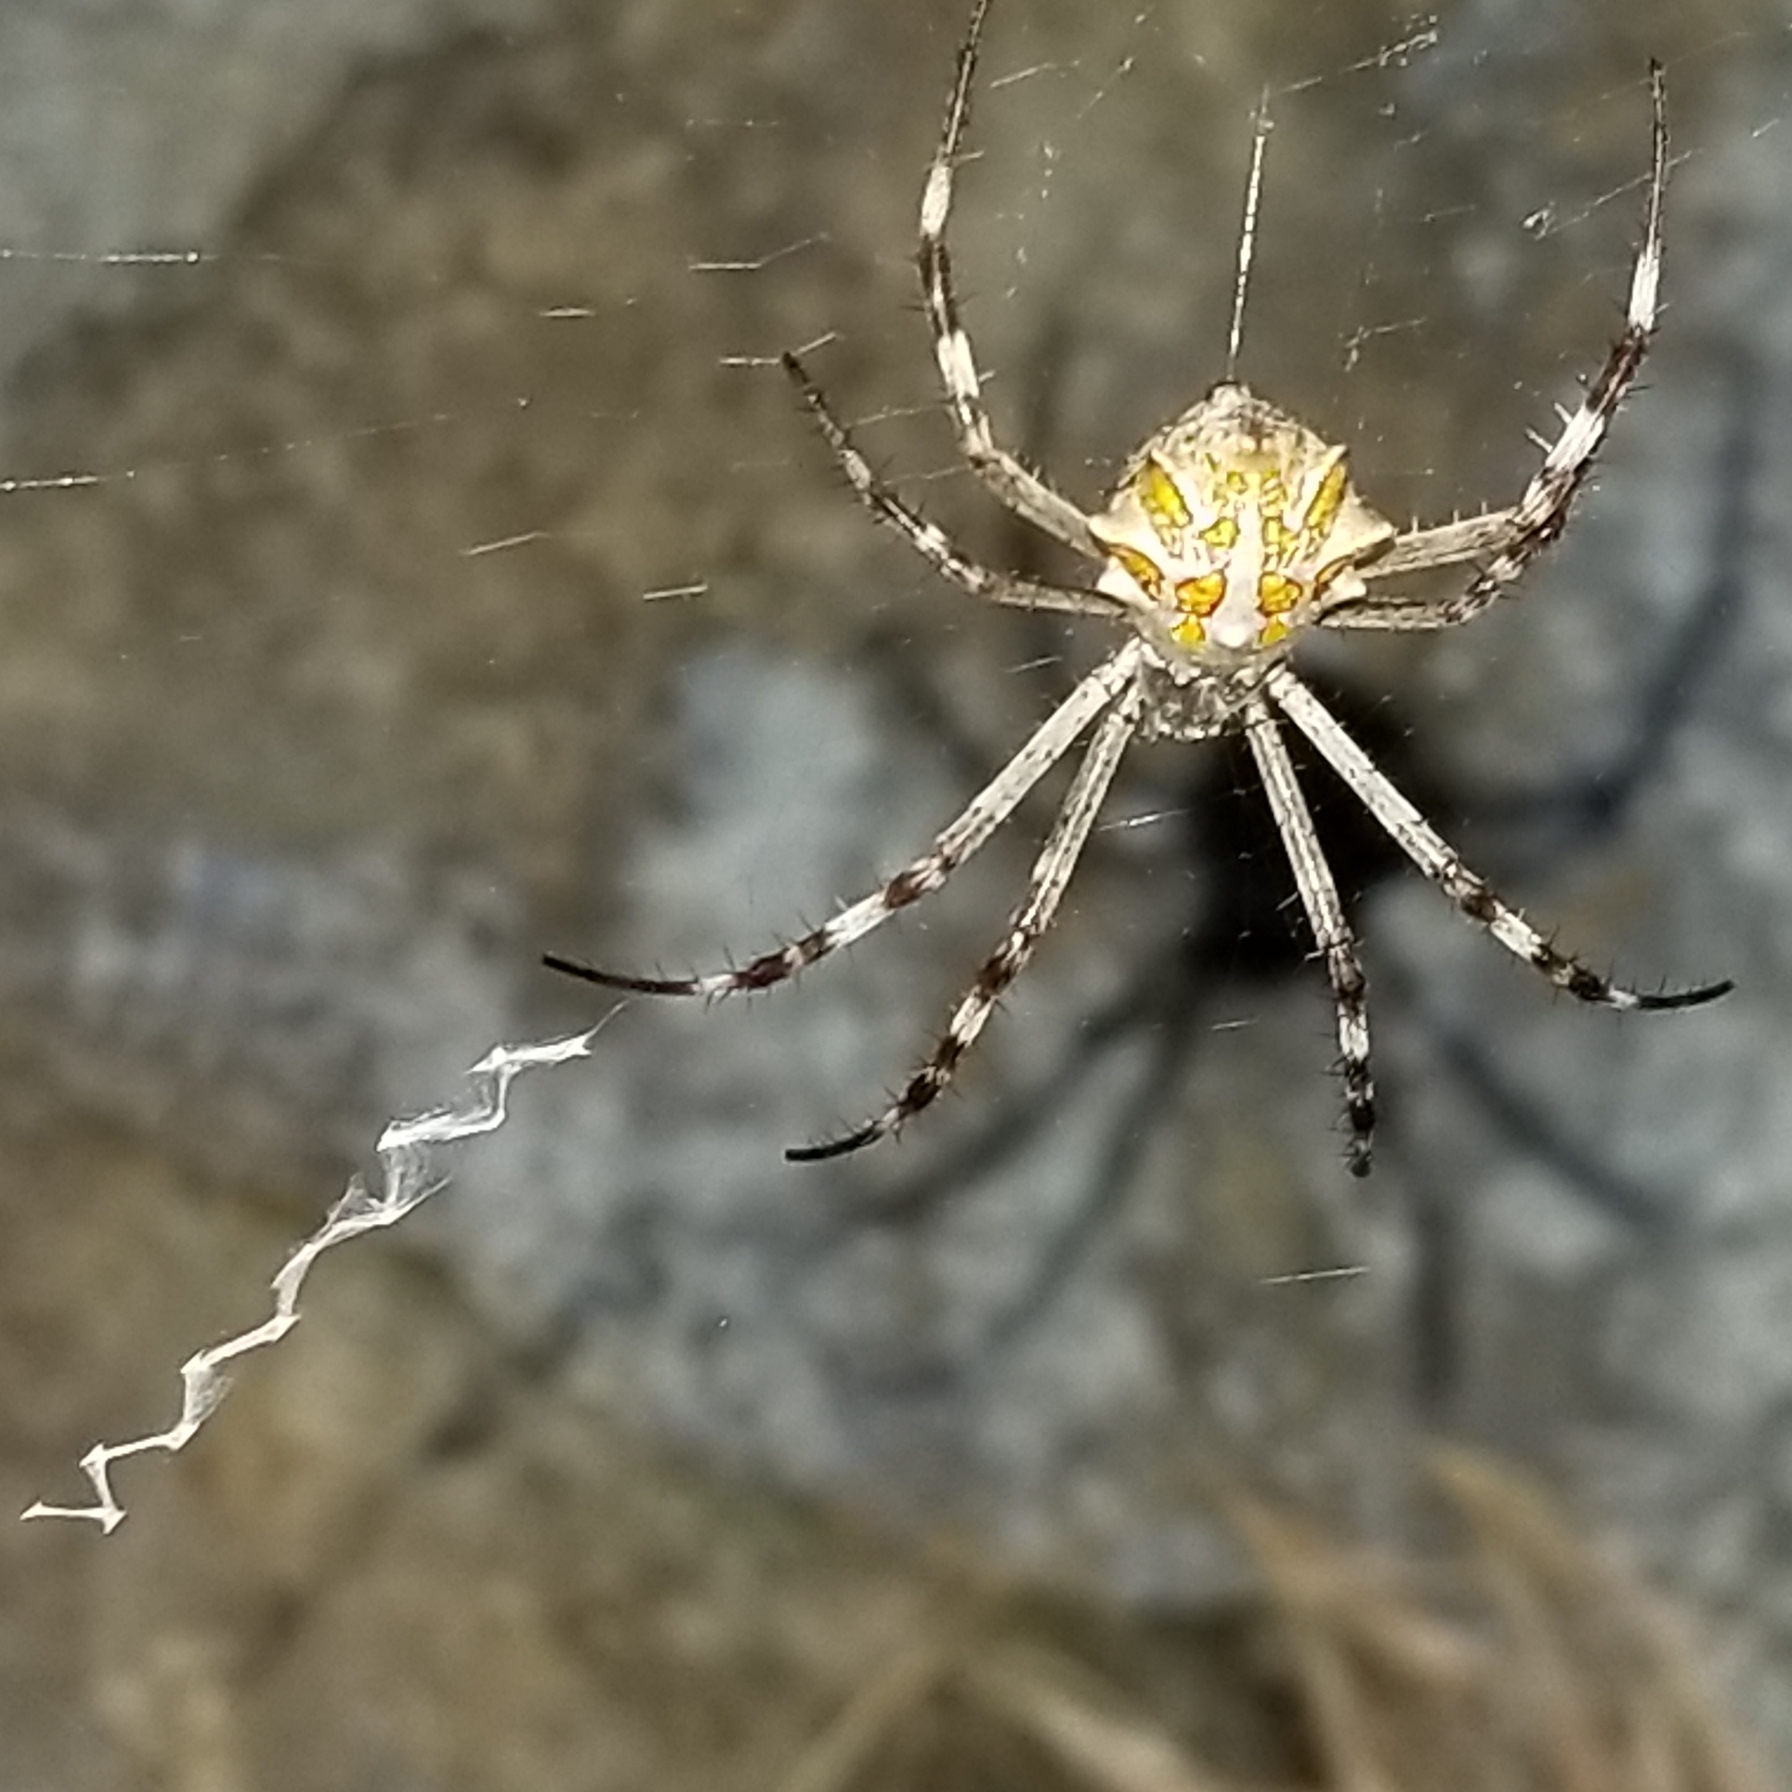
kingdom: Animalia
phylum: Arthropoda
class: Arachnida
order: Araneae
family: Araneidae
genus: Argiope
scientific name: Argiope argentata
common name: Orb weavers
